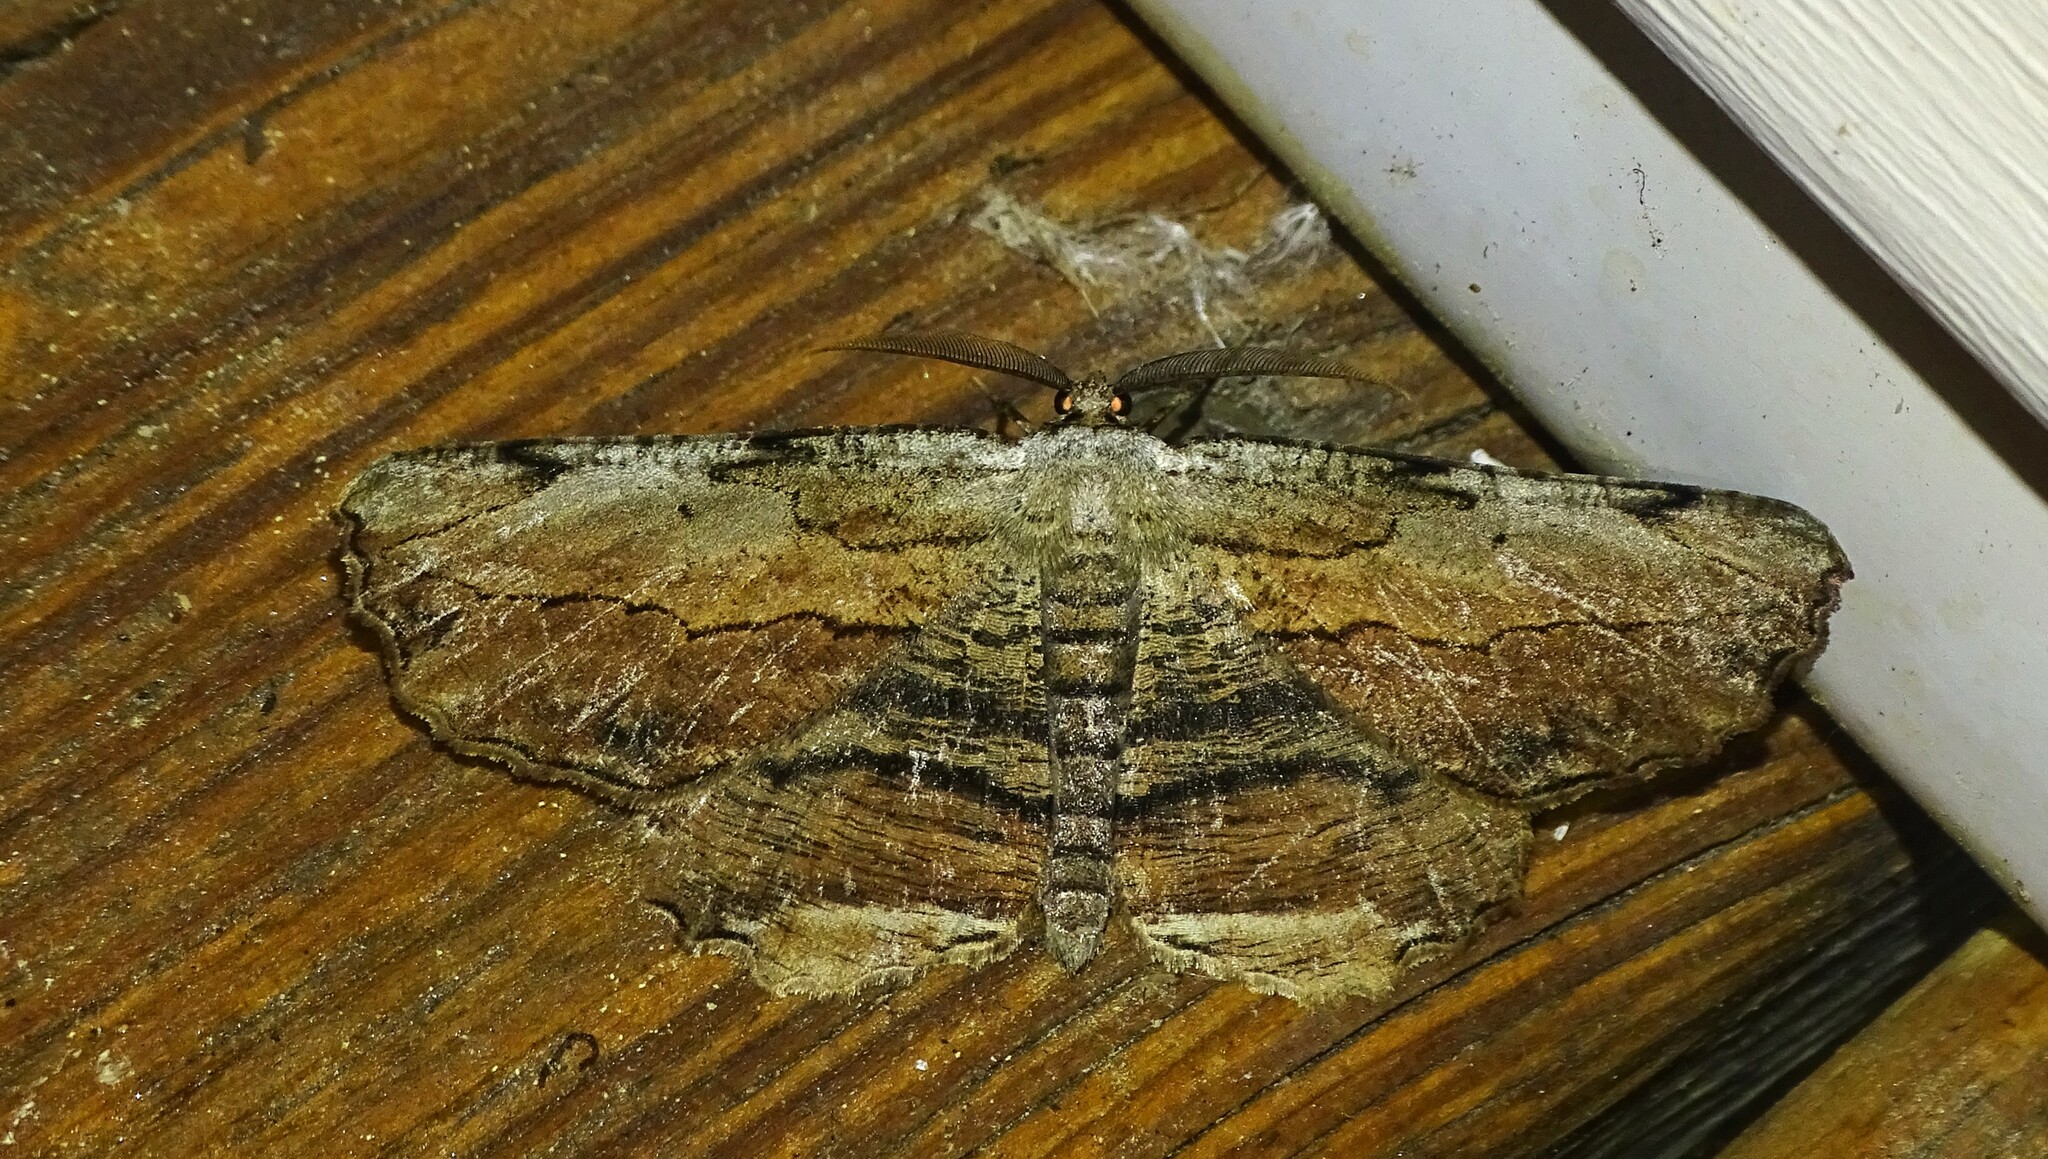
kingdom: Animalia
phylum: Arthropoda
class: Insecta
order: Lepidoptera
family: Geometridae
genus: Lytrosis
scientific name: Lytrosis unitaria
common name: Common lytrosis
